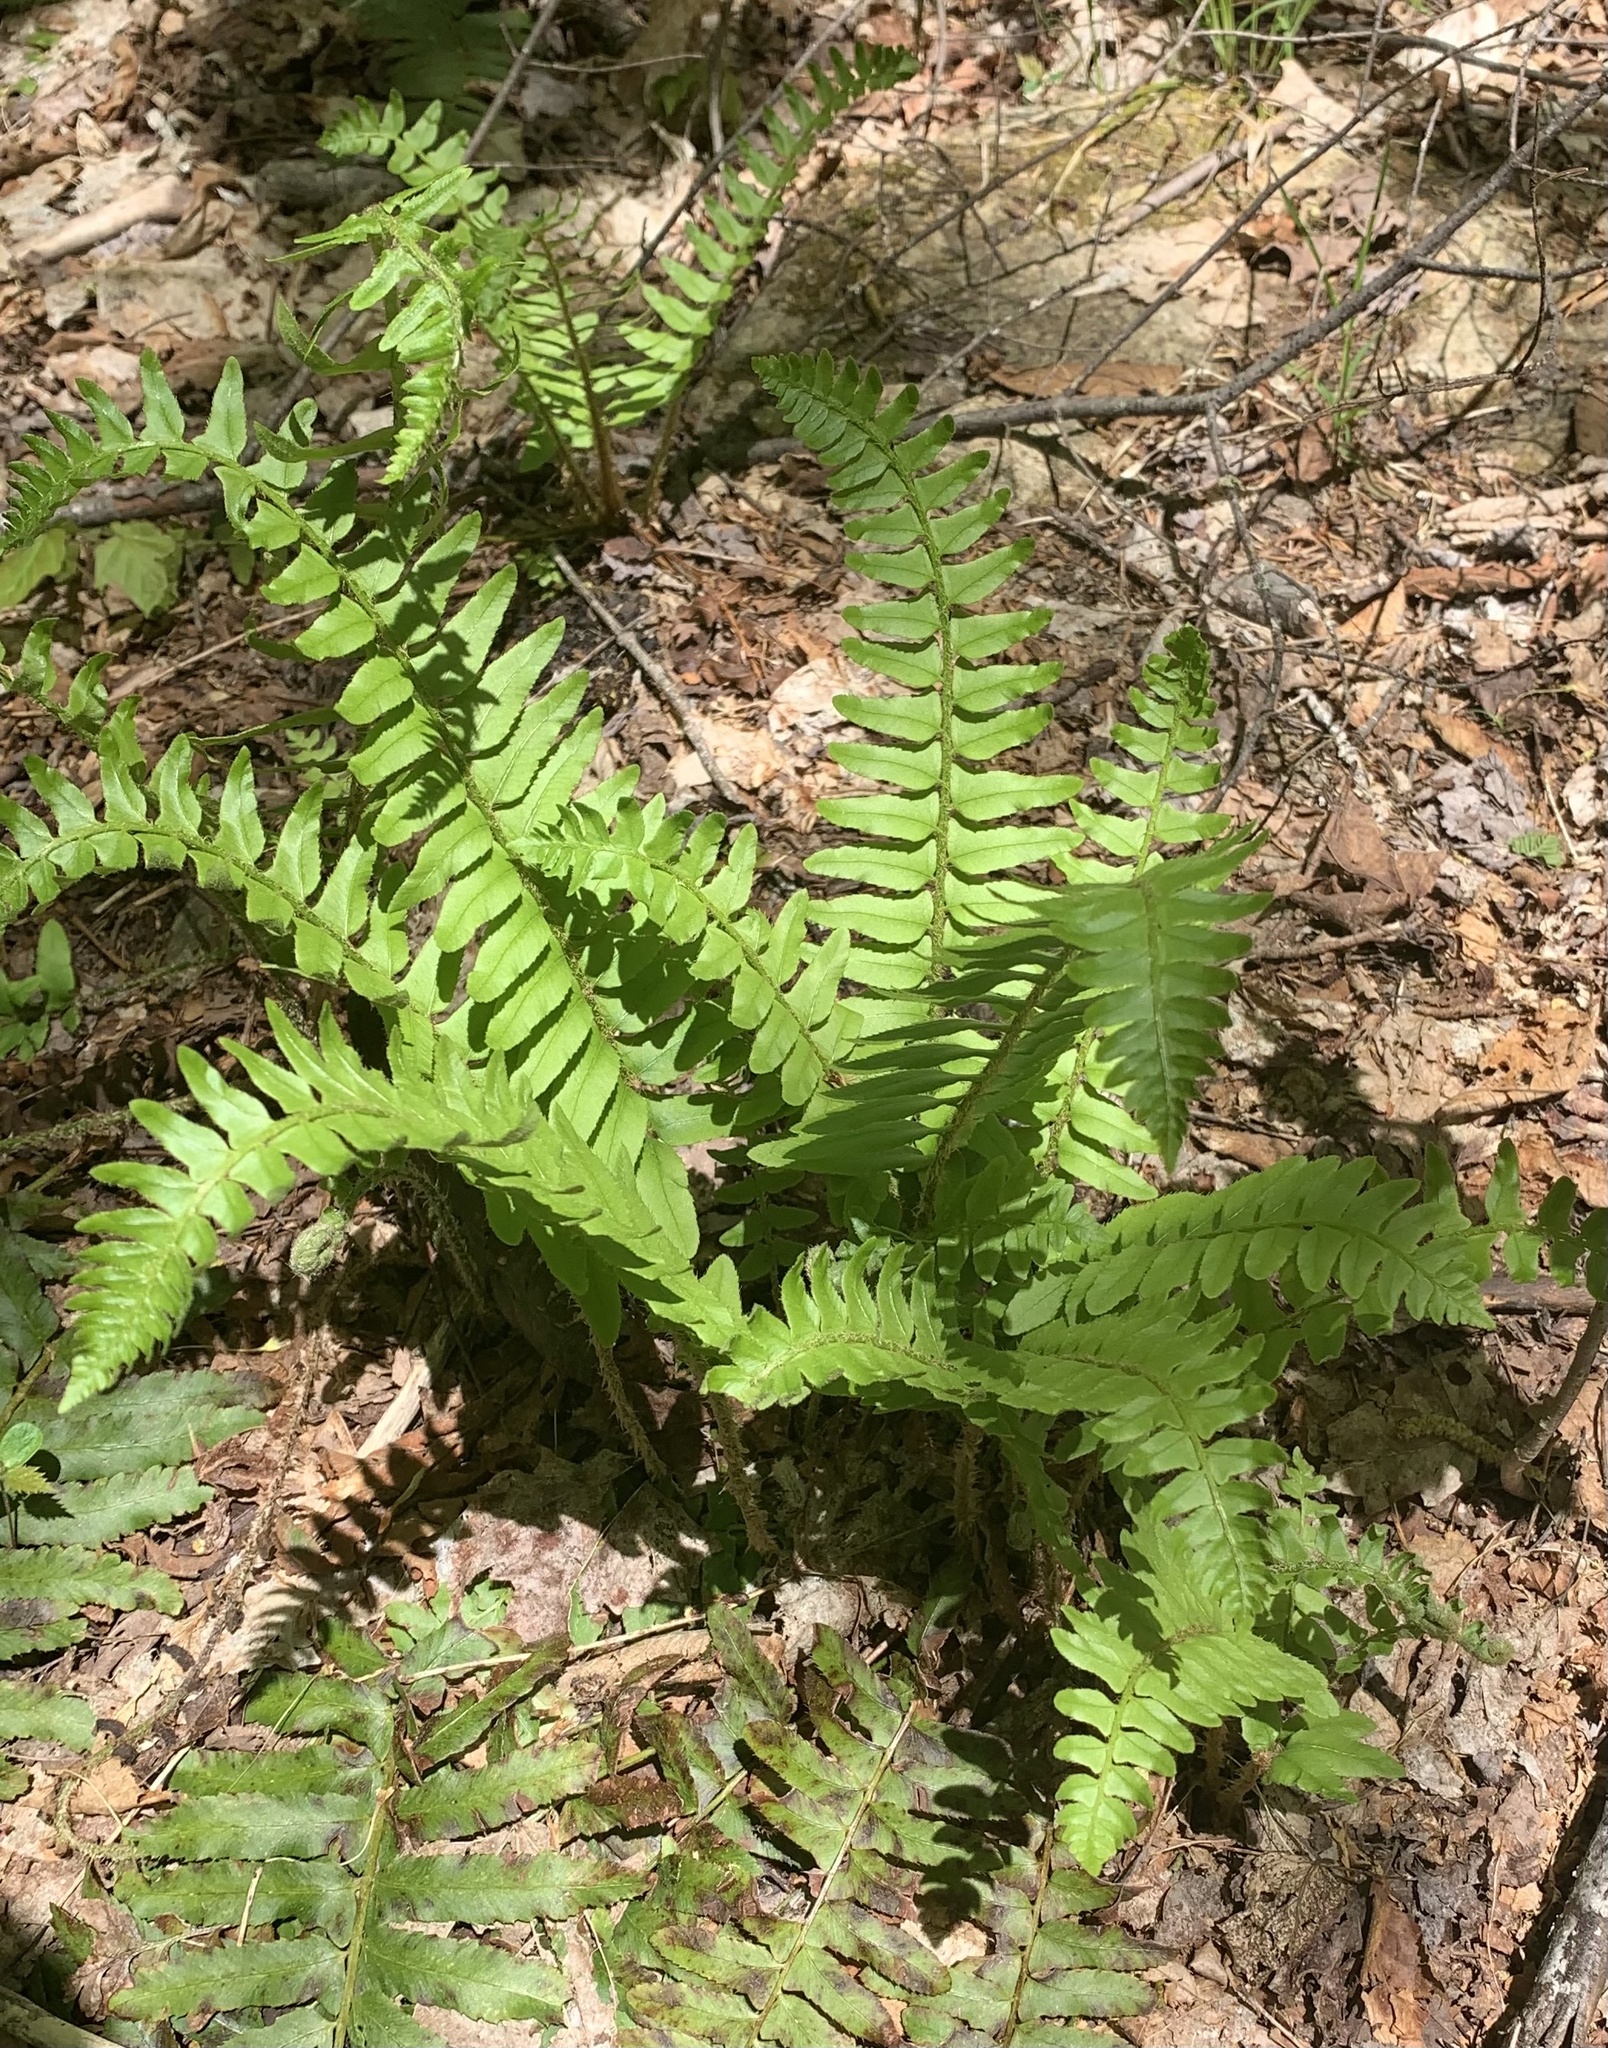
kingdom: Plantae
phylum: Tracheophyta
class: Polypodiopsida
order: Polypodiales
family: Dryopteridaceae
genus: Polystichum
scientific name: Polystichum acrostichoides
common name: Christmas fern
